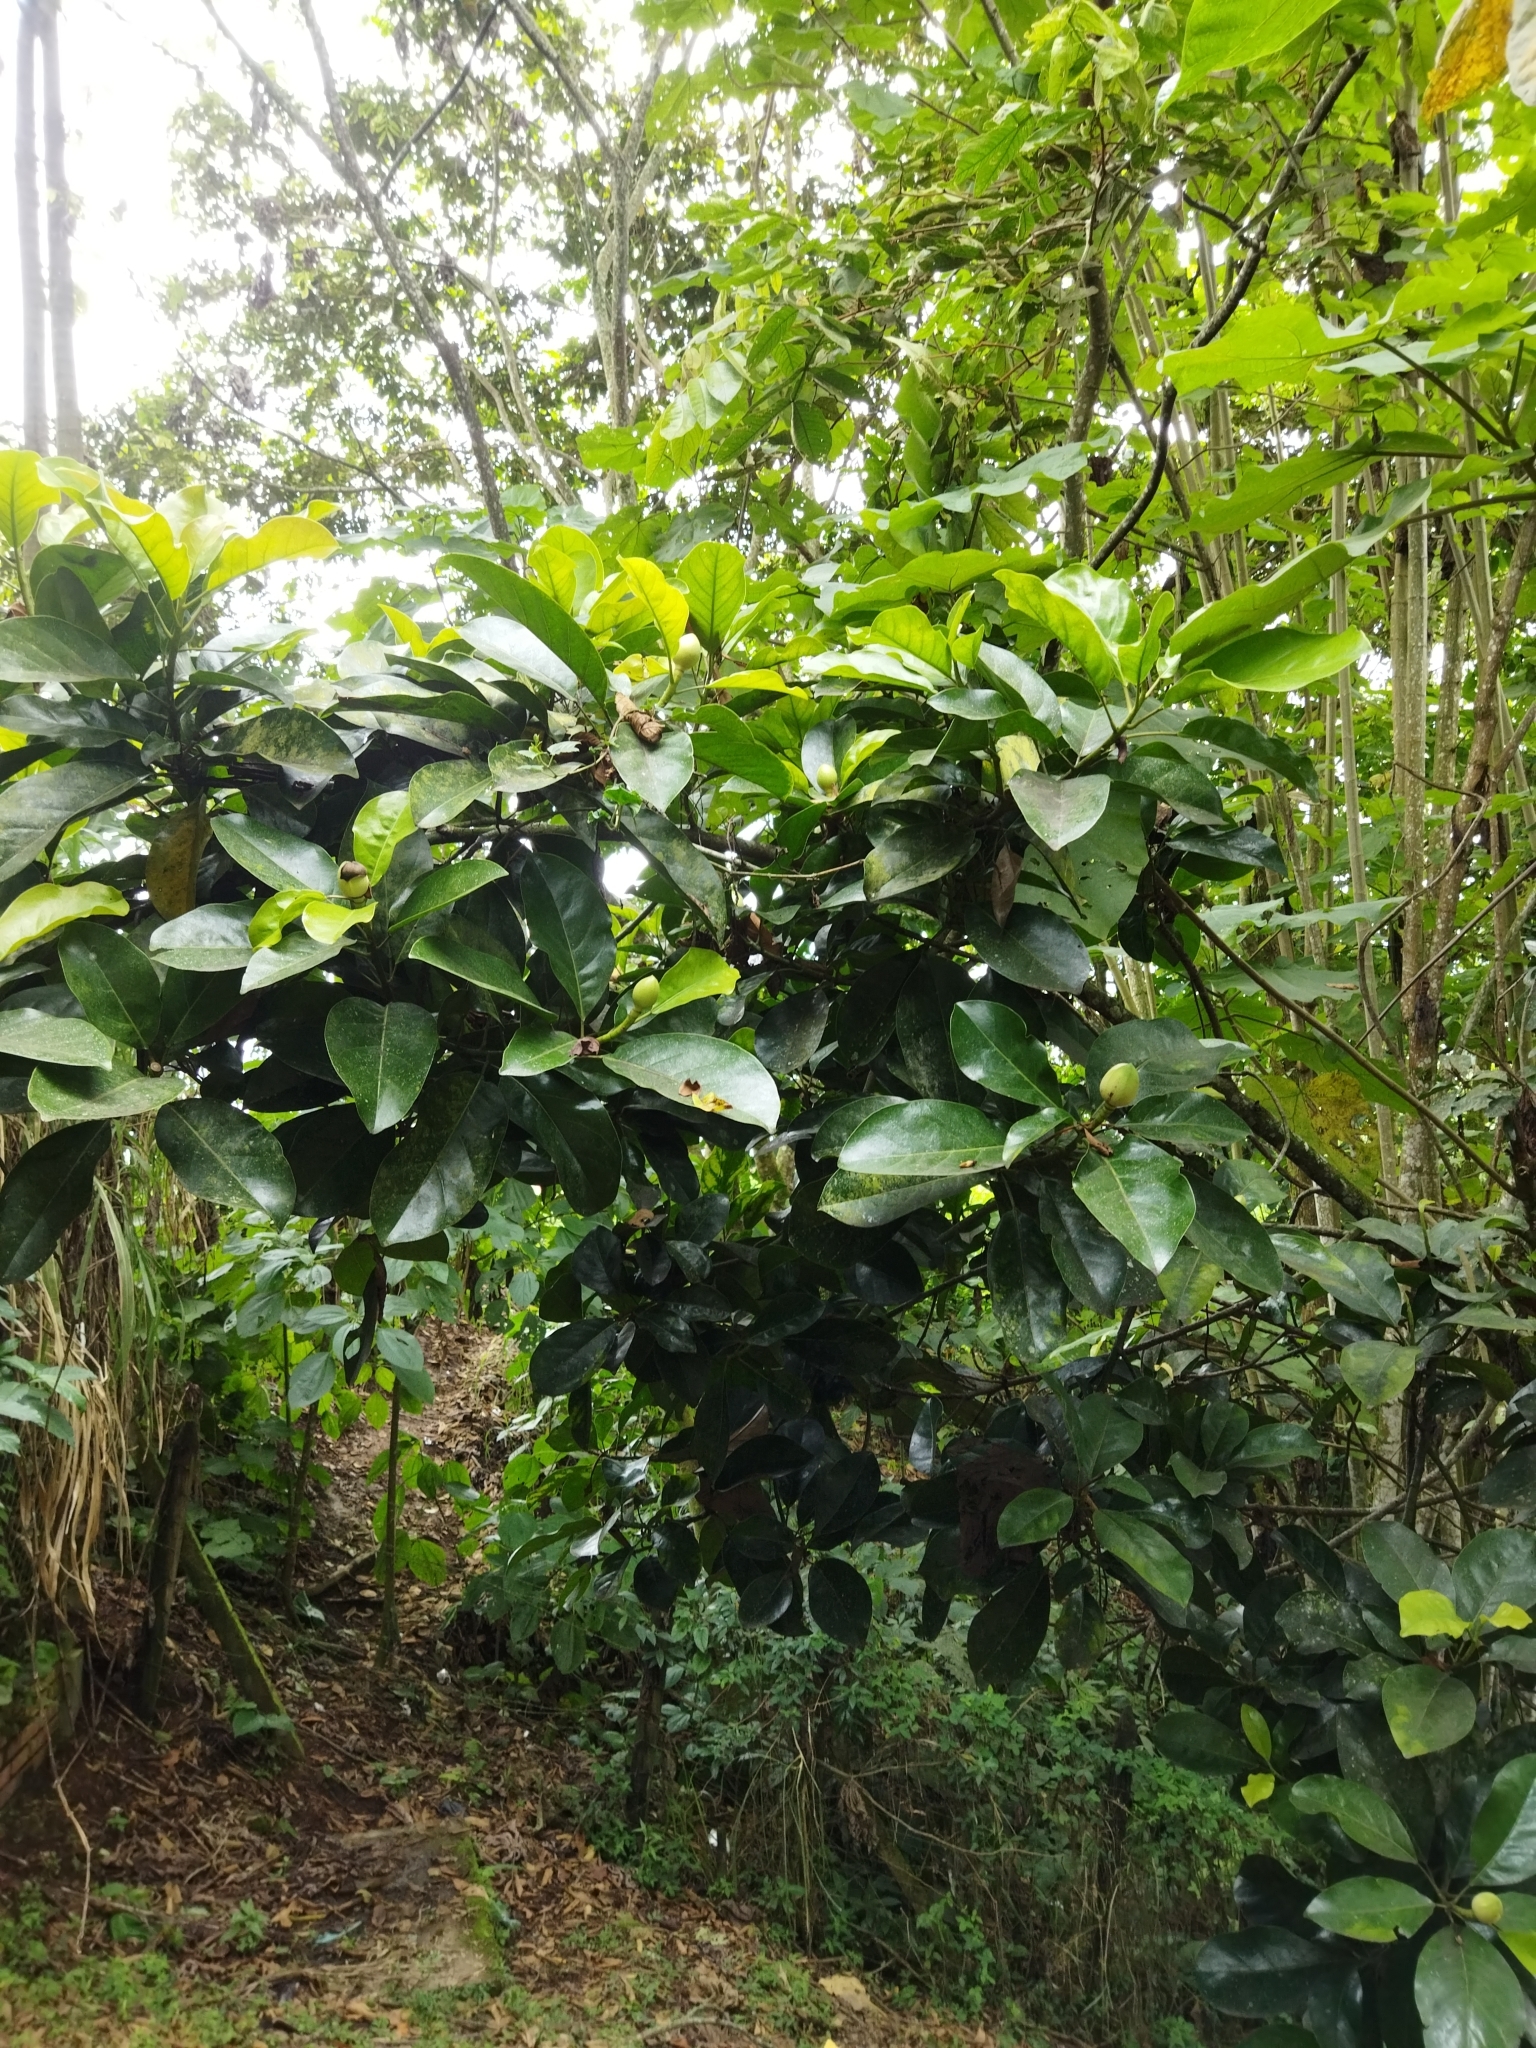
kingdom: Plantae
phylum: Tracheophyta
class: Magnoliopsida
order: Magnoliales
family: Magnoliaceae
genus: Magnolia
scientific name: Magnolia gilbertoi
